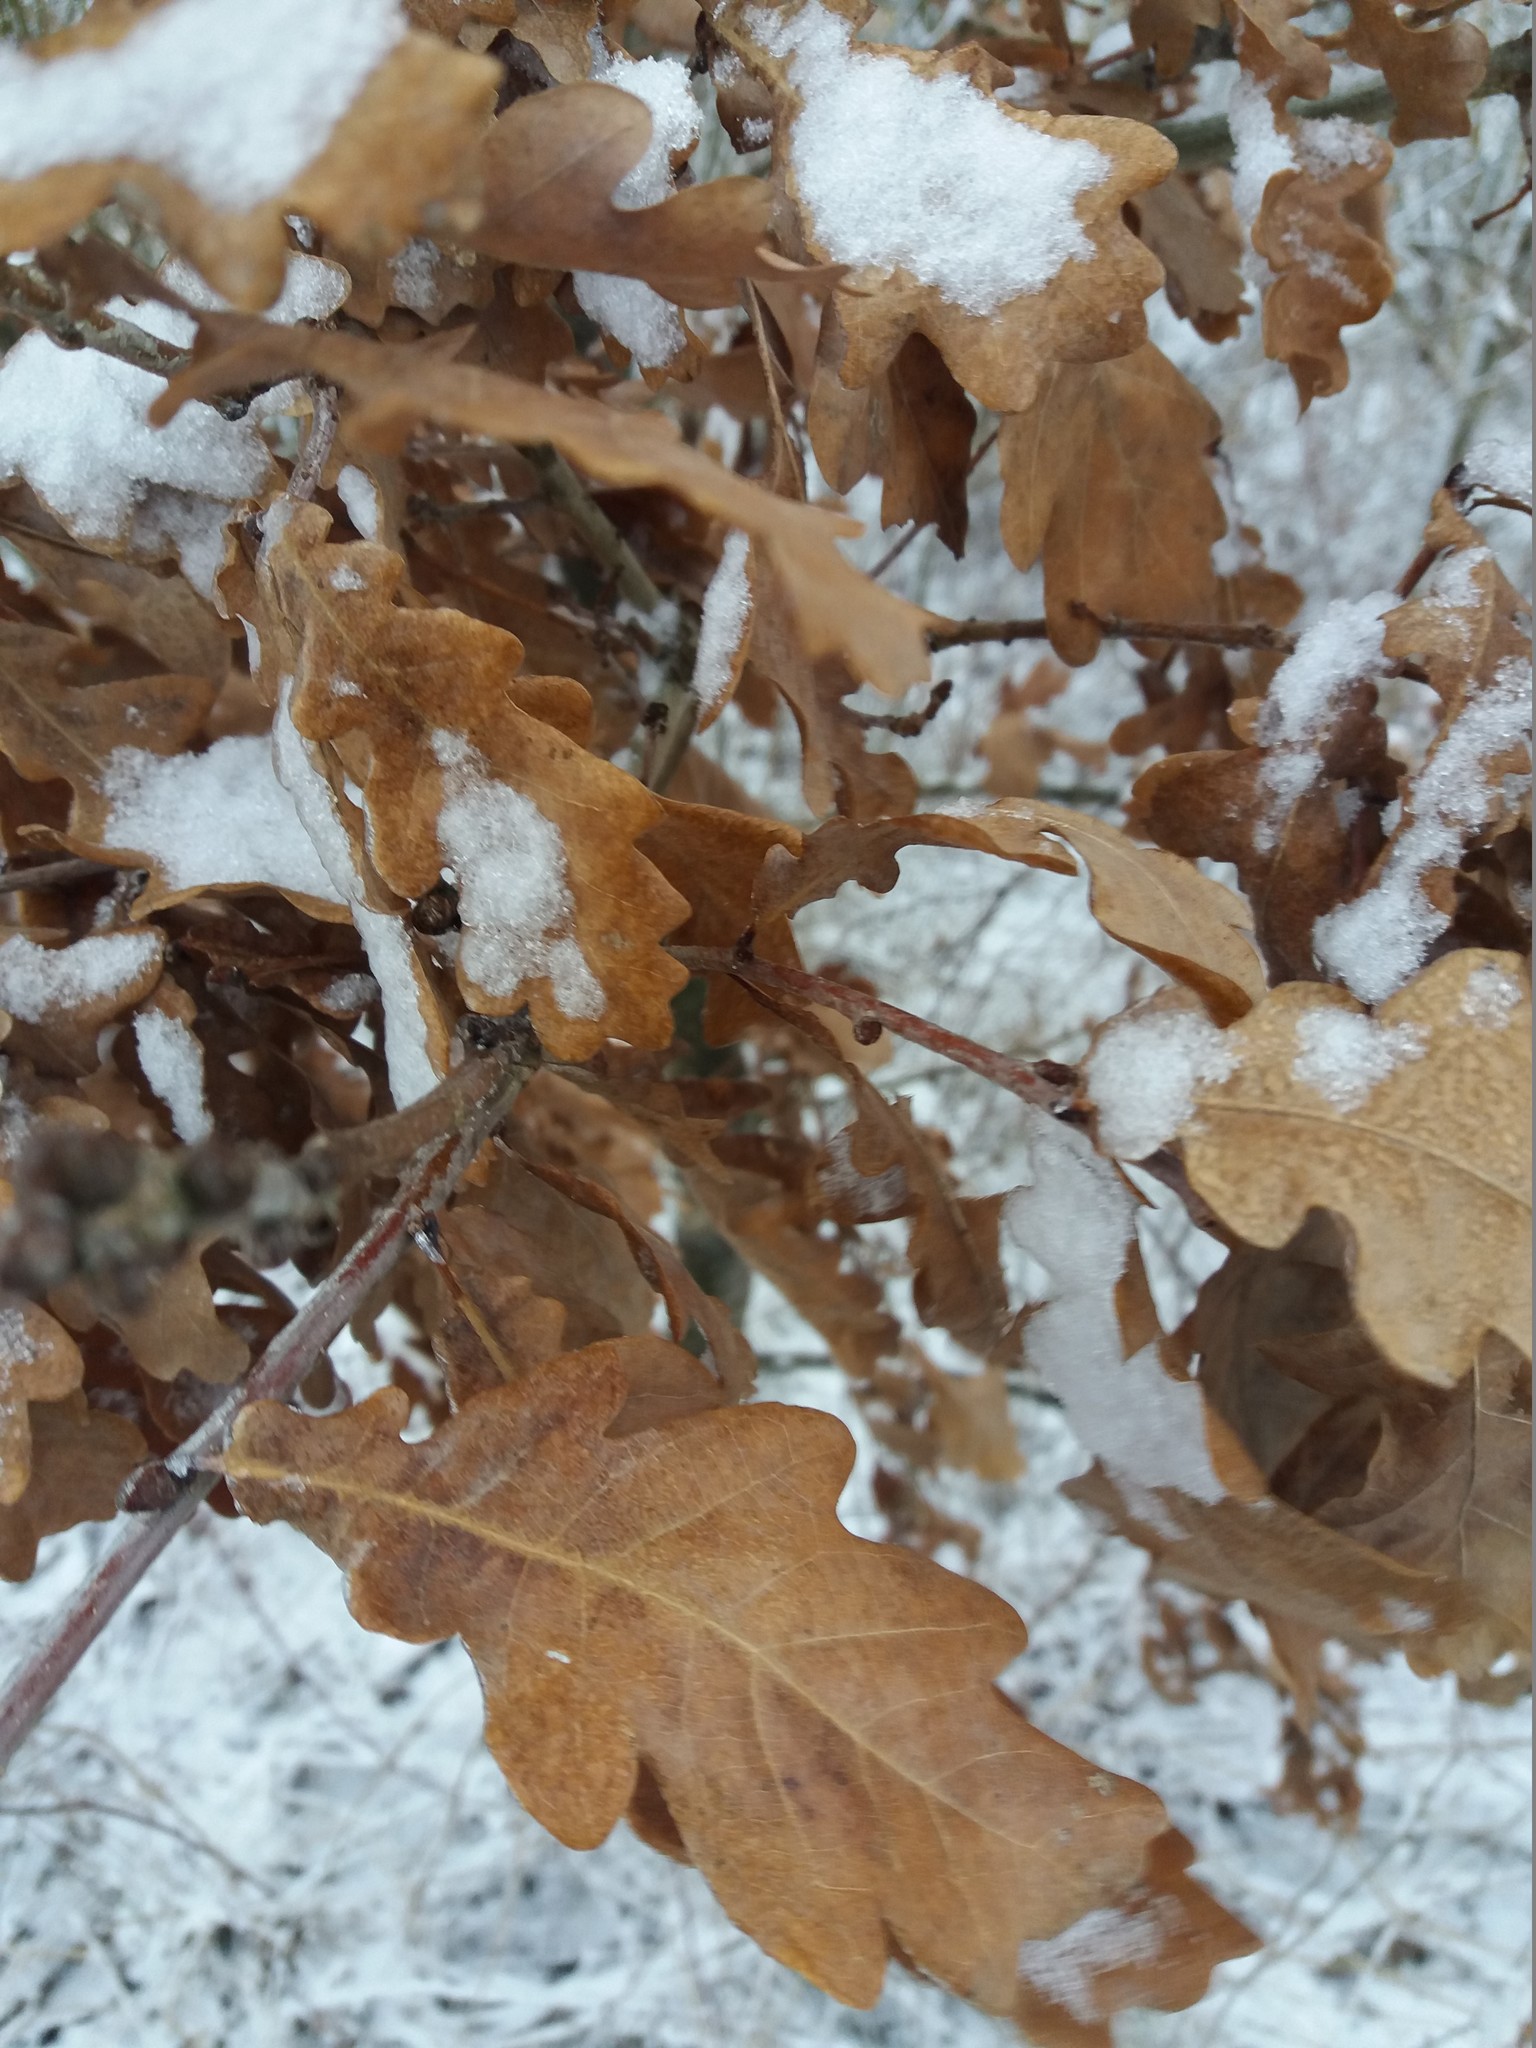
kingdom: Plantae
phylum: Tracheophyta
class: Magnoliopsida
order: Fagales
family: Fagaceae
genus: Quercus
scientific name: Quercus robur
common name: Pedunculate oak
